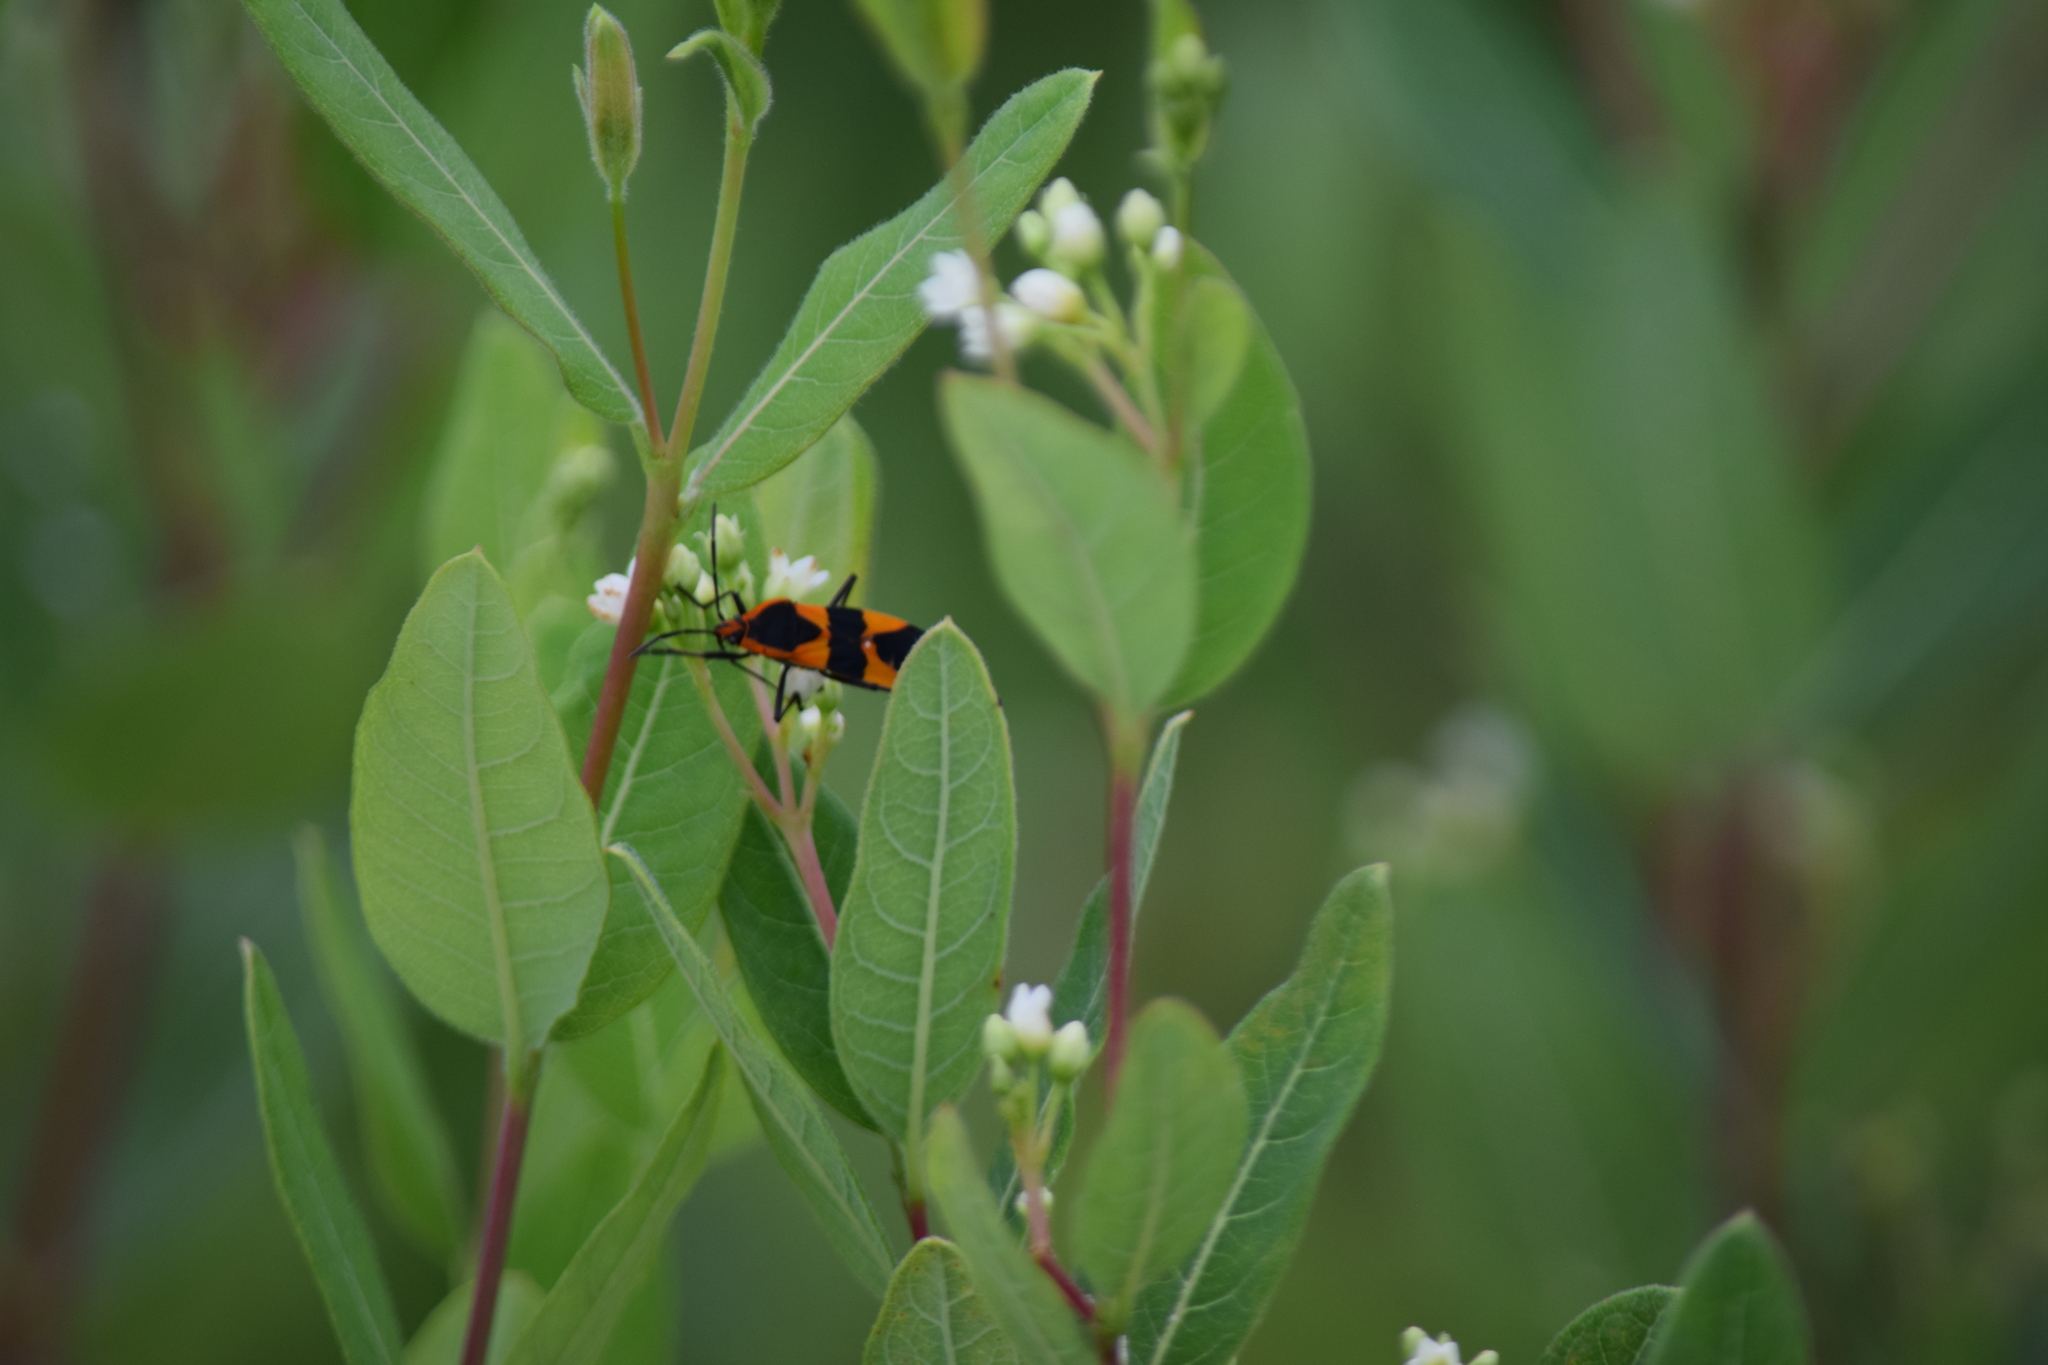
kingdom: Animalia
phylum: Arthropoda
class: Insecta
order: Hemiptera
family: Lygaeidae
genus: Oncopeltus
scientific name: Oncopeltus fasciatus
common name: Large milkweed bug
